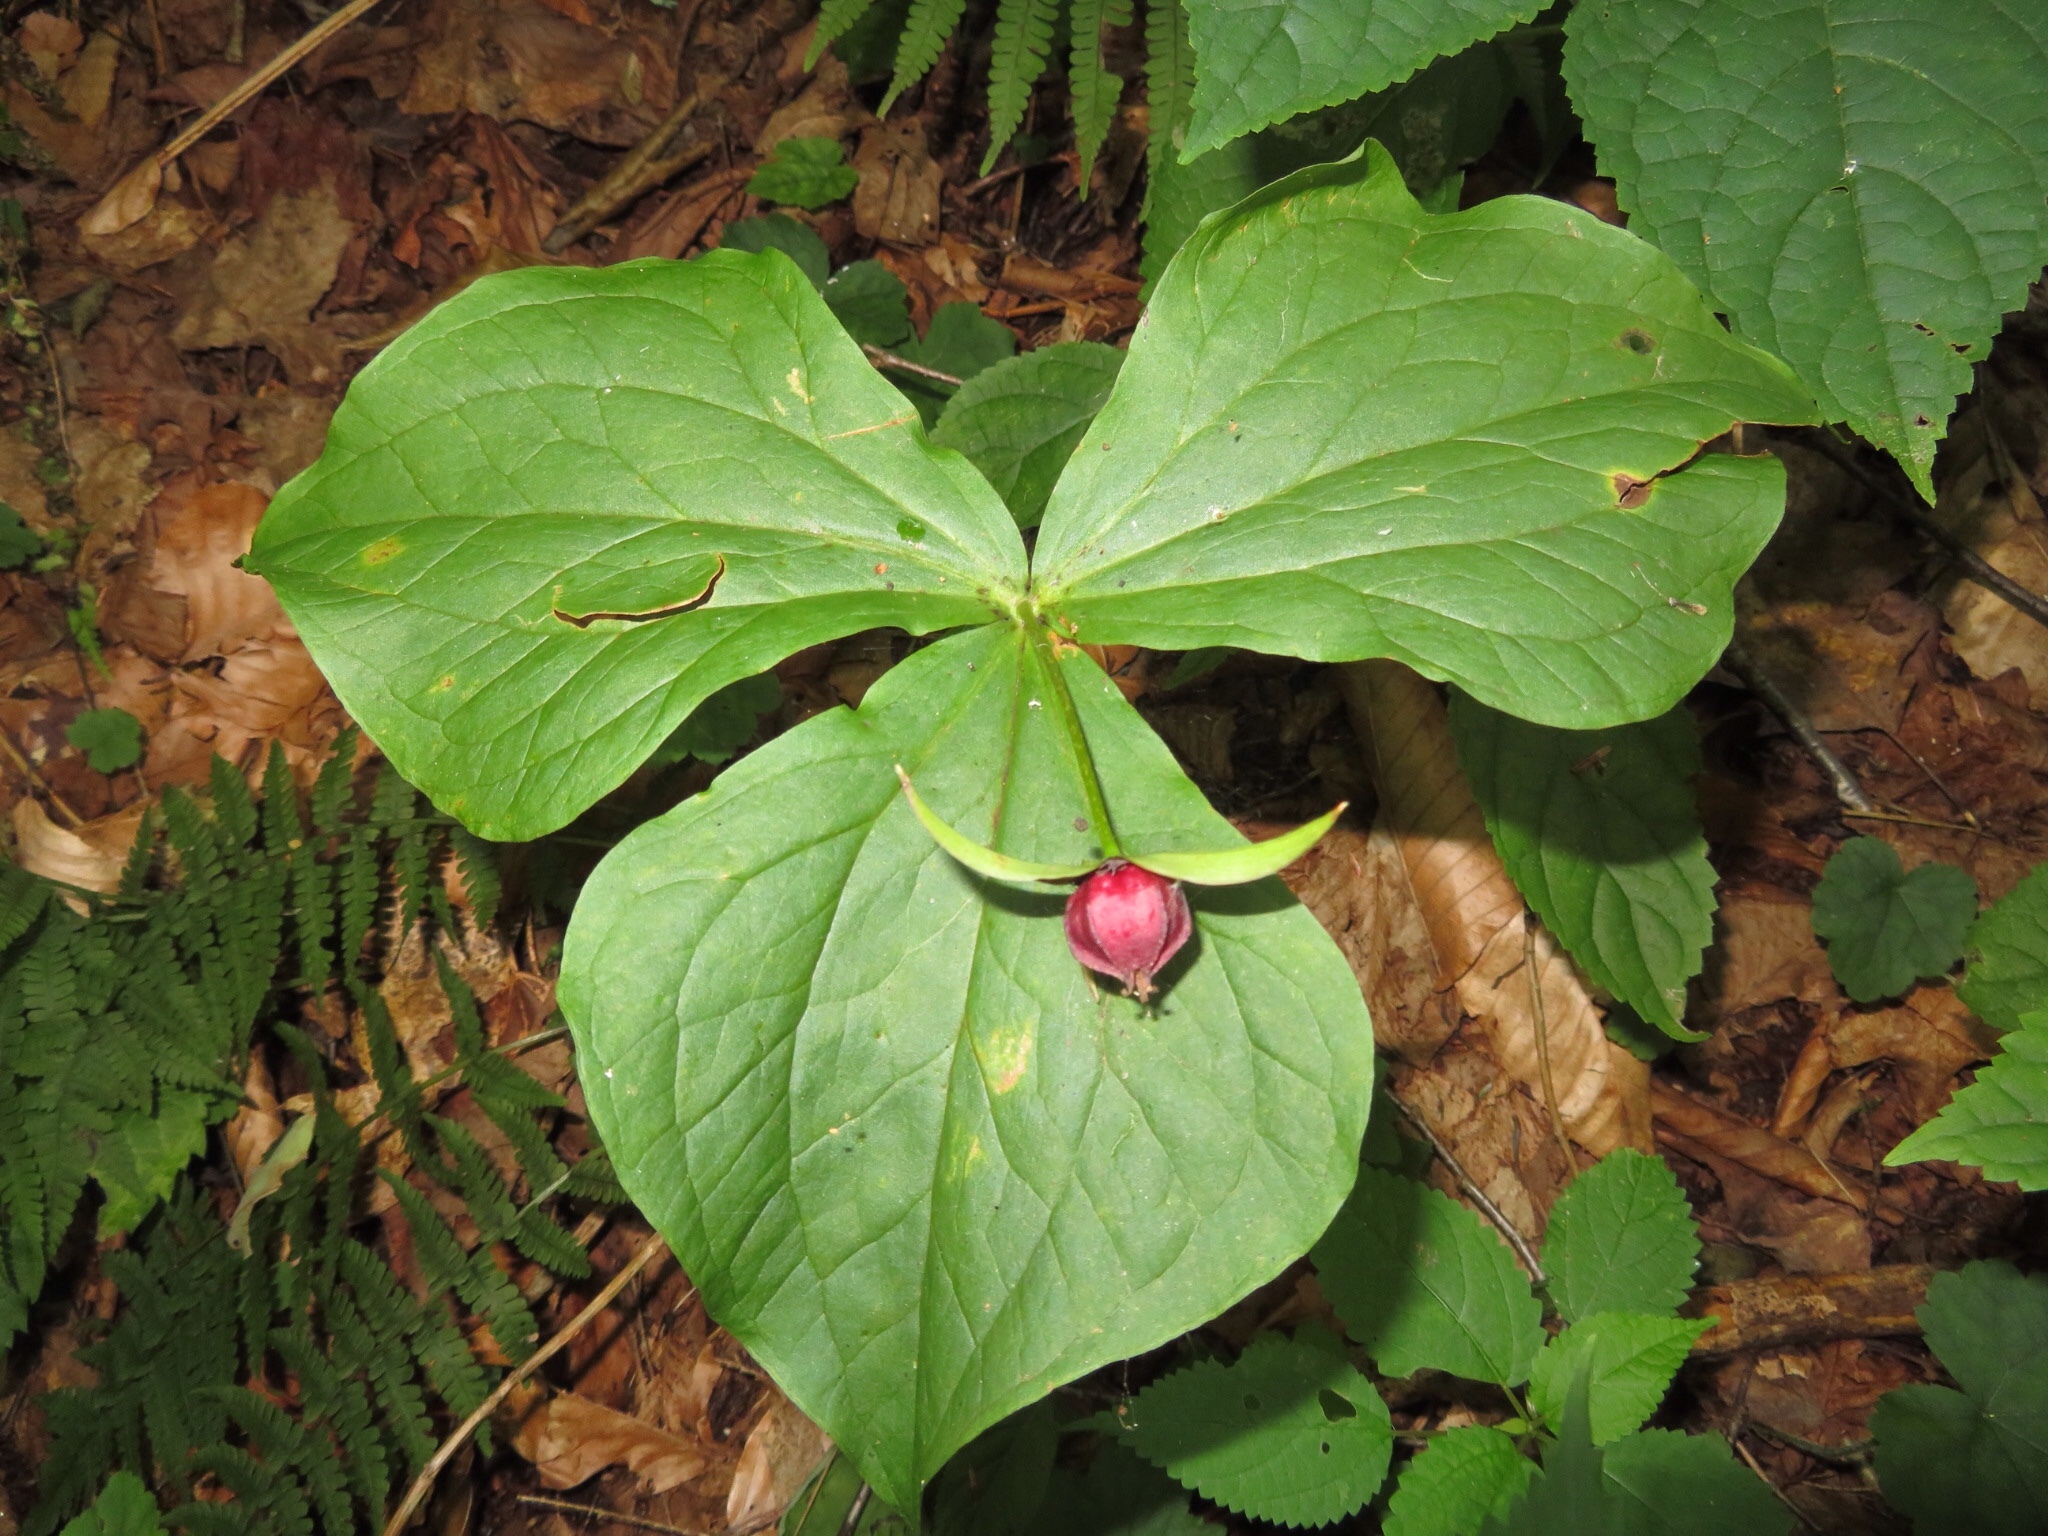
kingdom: Plantae
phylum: Tracheophyta
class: Liliopsida
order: Liliales
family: Melanthiaceae
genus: Trillium
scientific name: Trillium erectum
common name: Purple trillium
